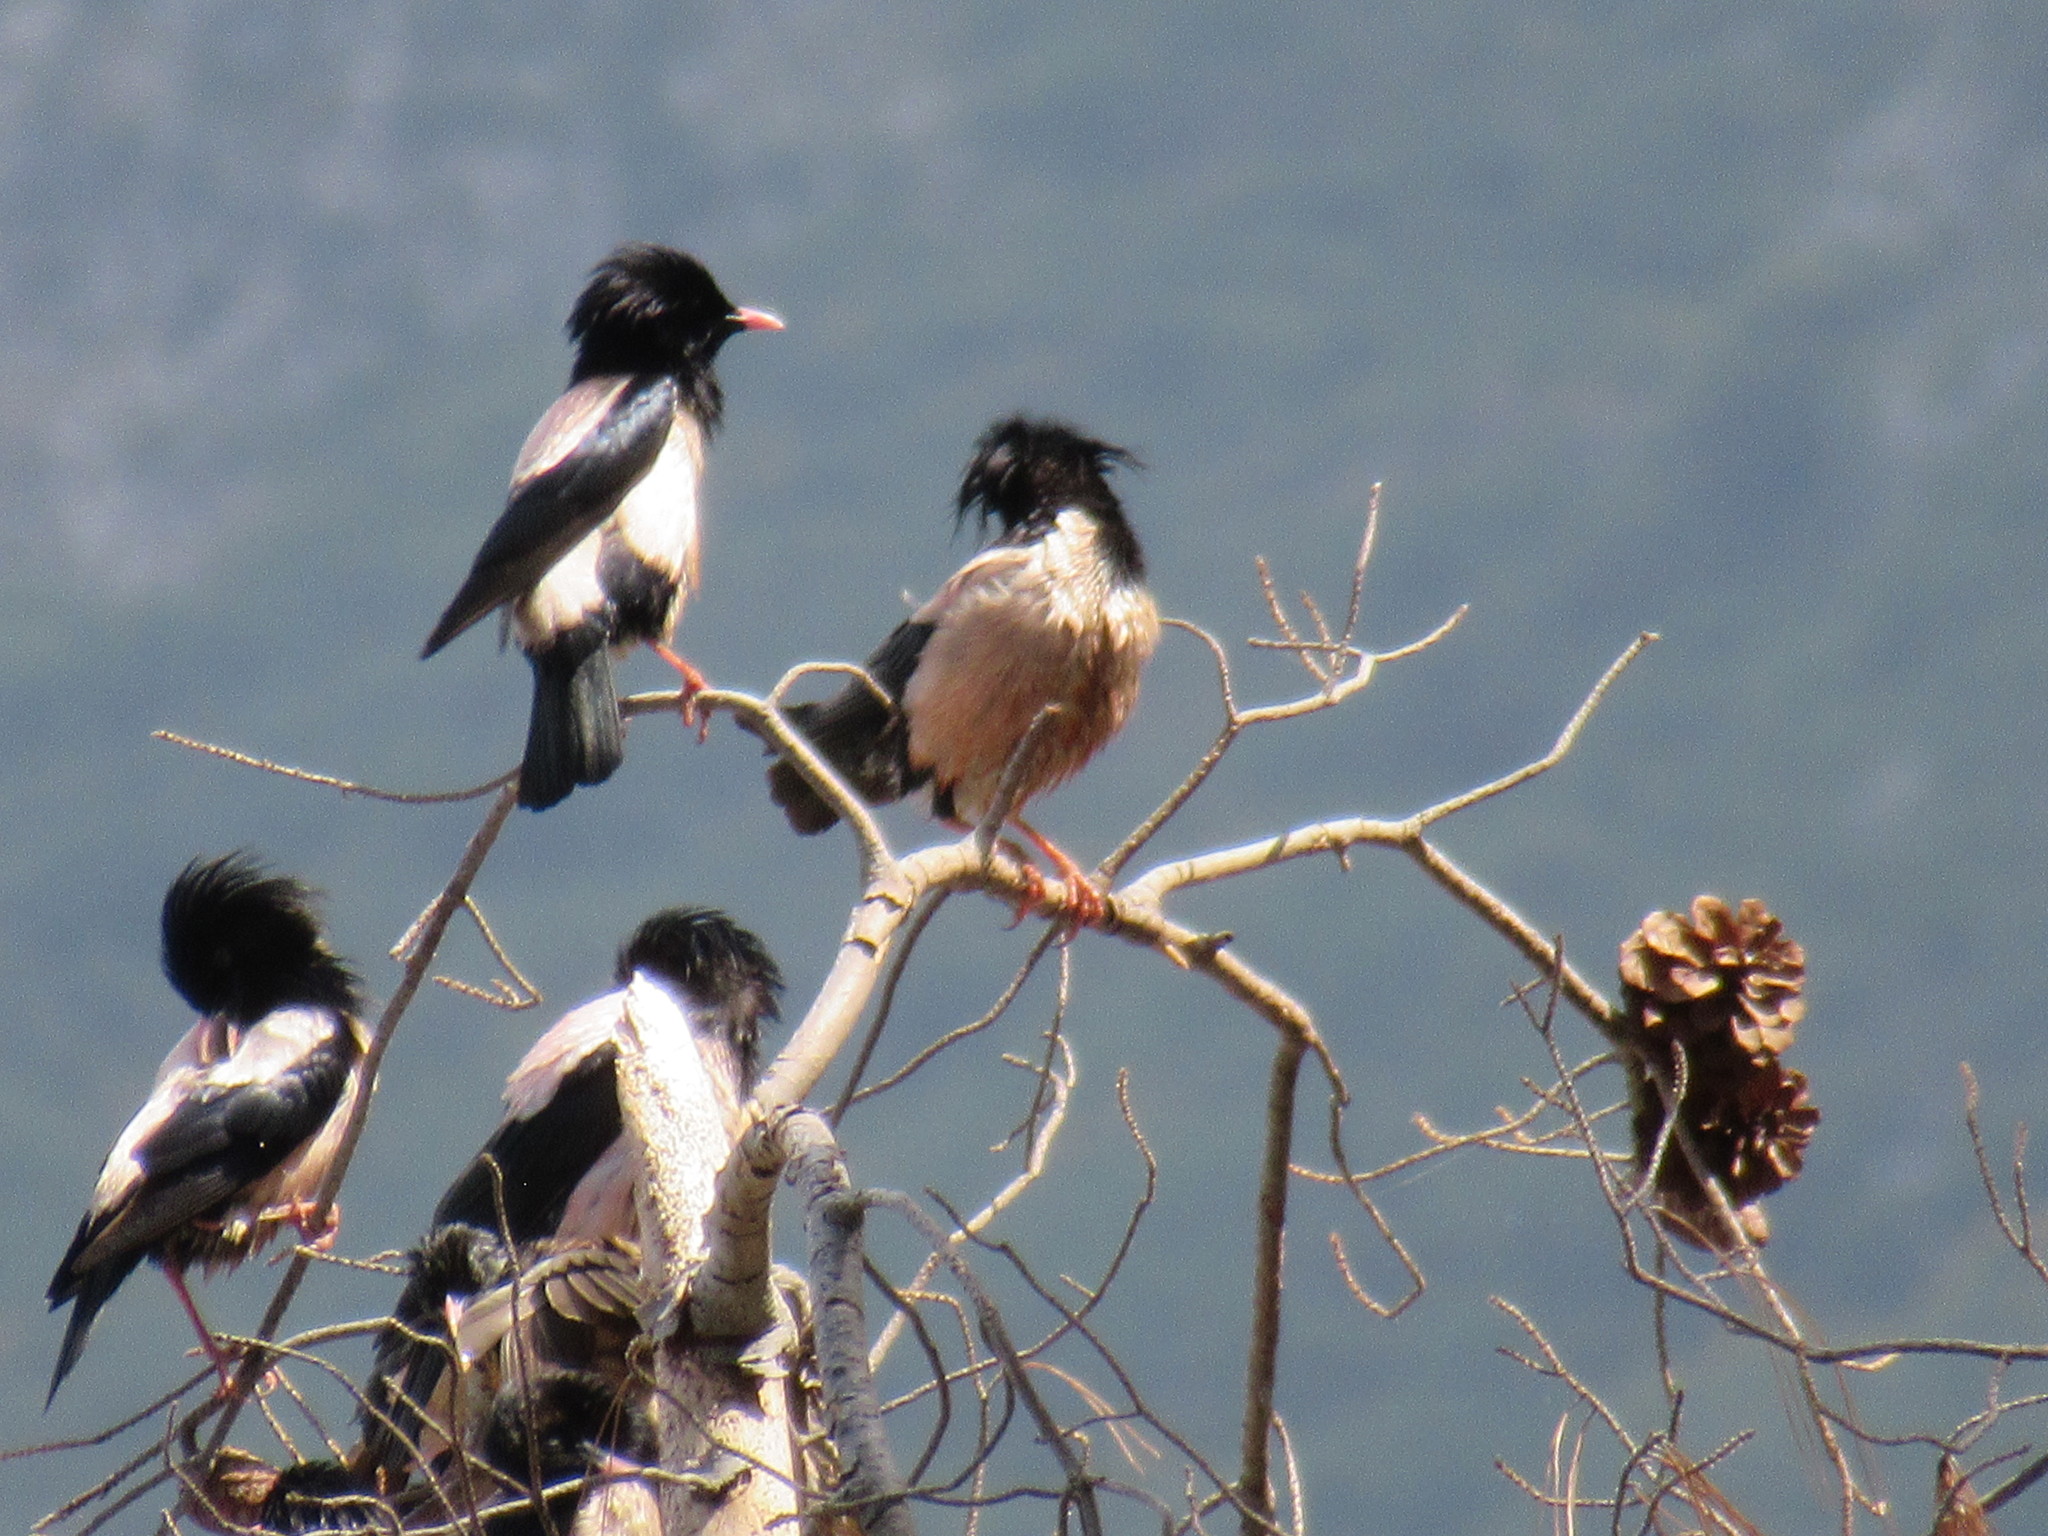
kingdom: Animalia
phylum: Chordata
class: Aves
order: Passeriformes
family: Sturnidae
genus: Pastor
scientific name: Pastor roseus
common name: Rosy starling
